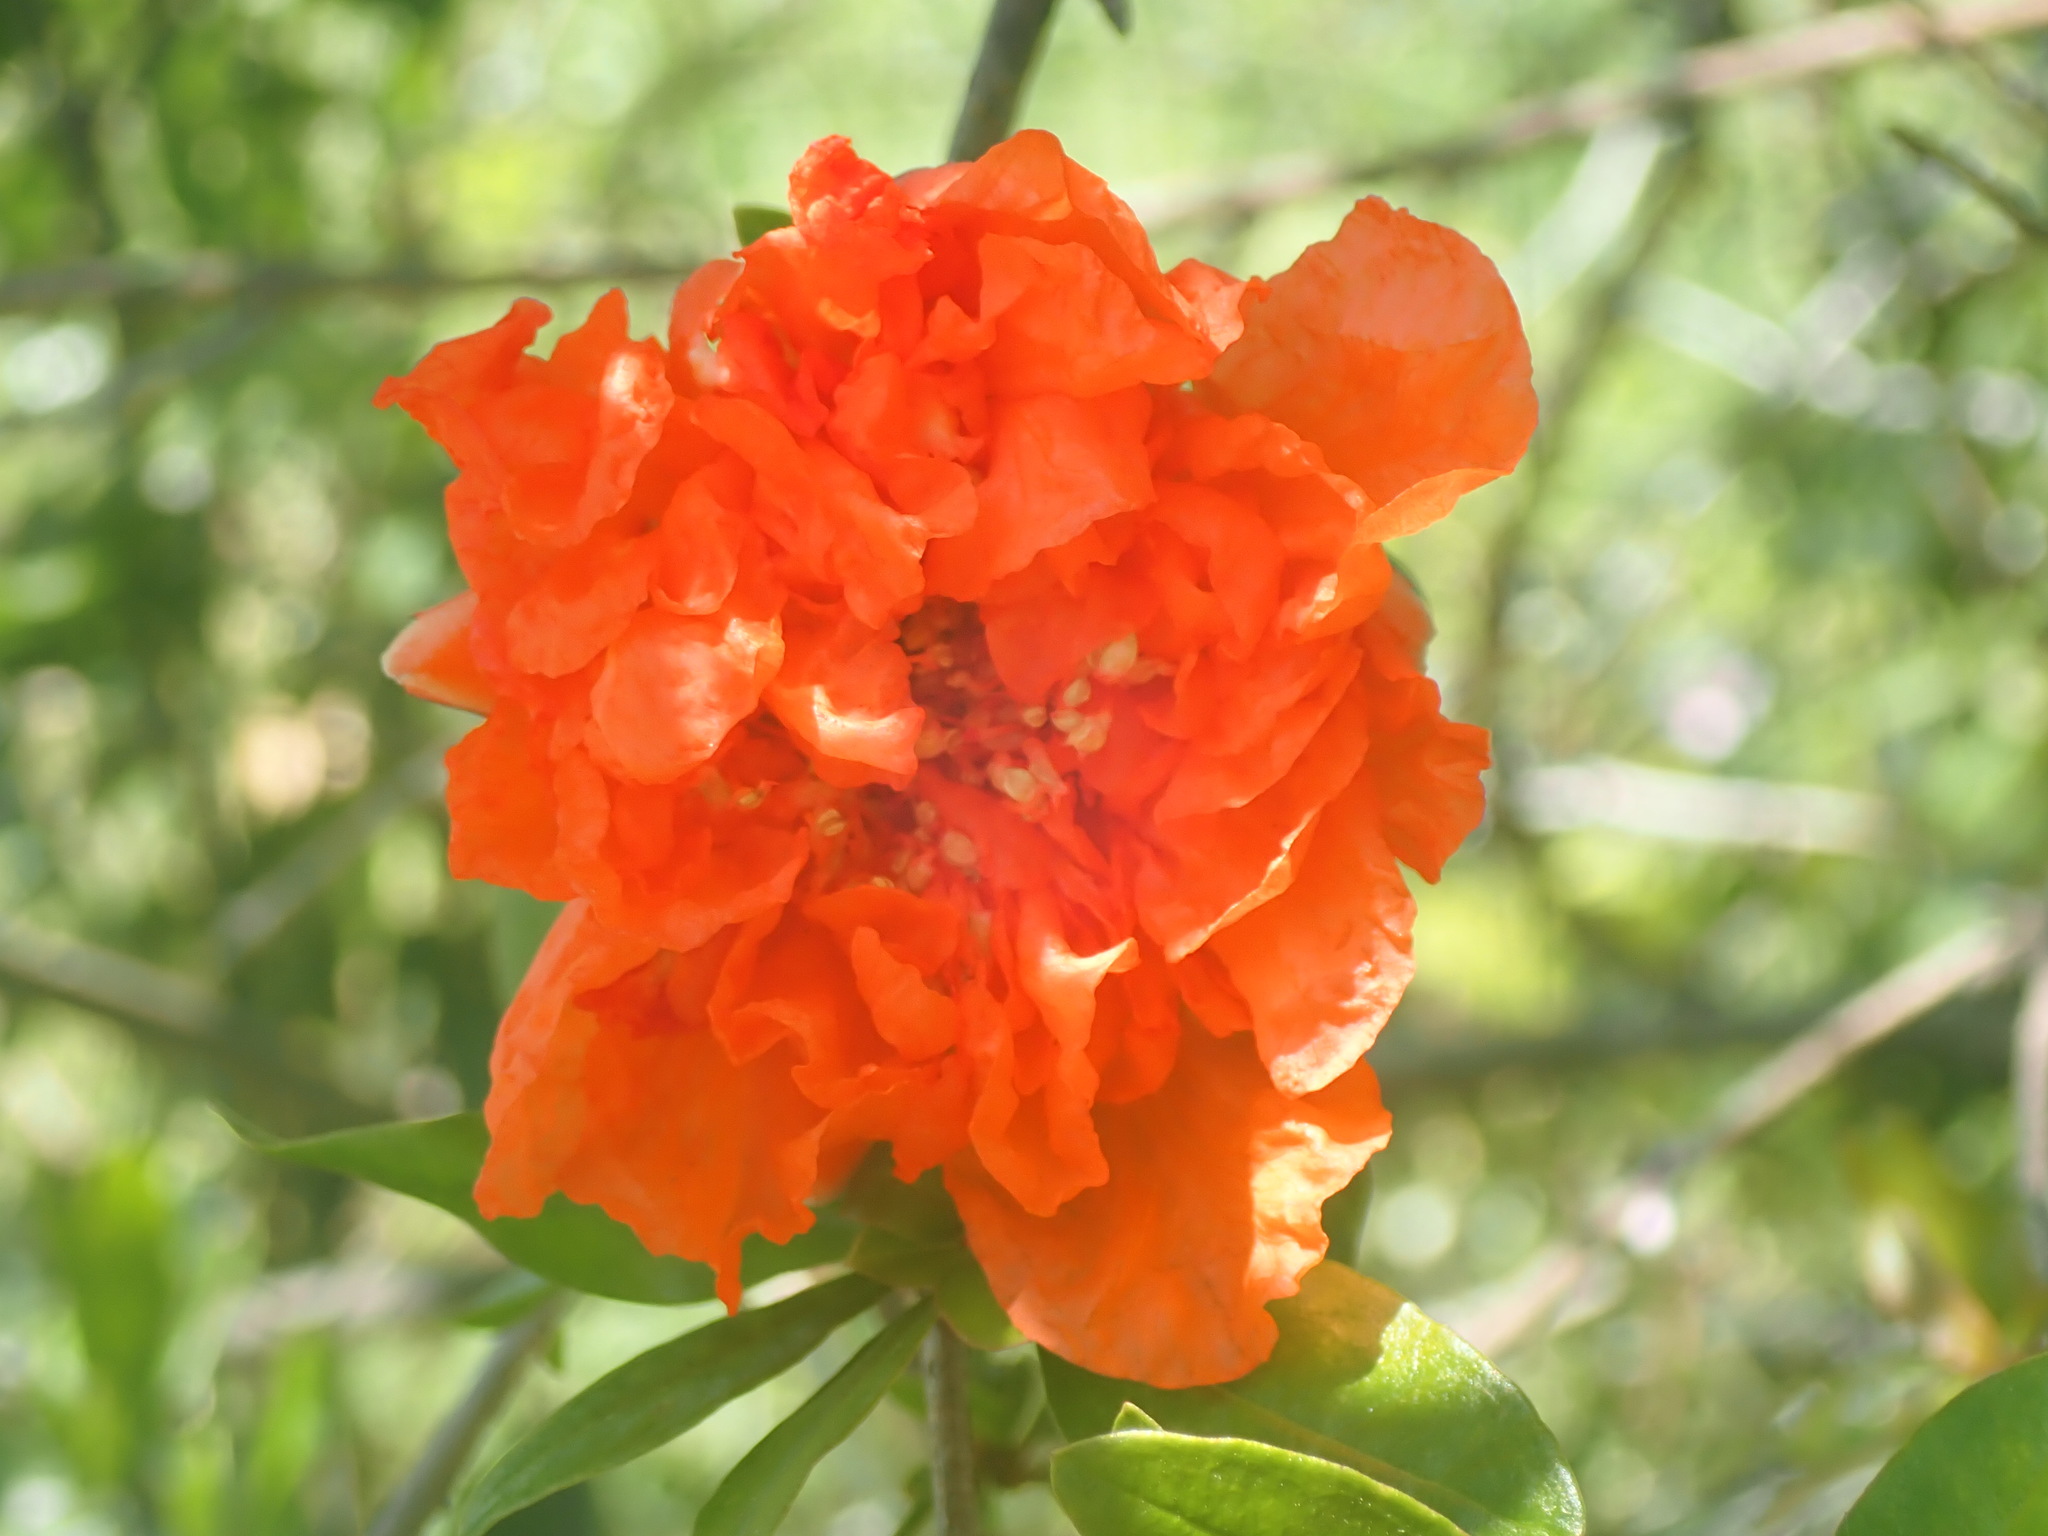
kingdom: Plantae
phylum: Tracheophyta
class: Magnoliopsida
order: Myrtales
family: Lythraceae
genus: Punica
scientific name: Punica granatum
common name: Pomegranate
